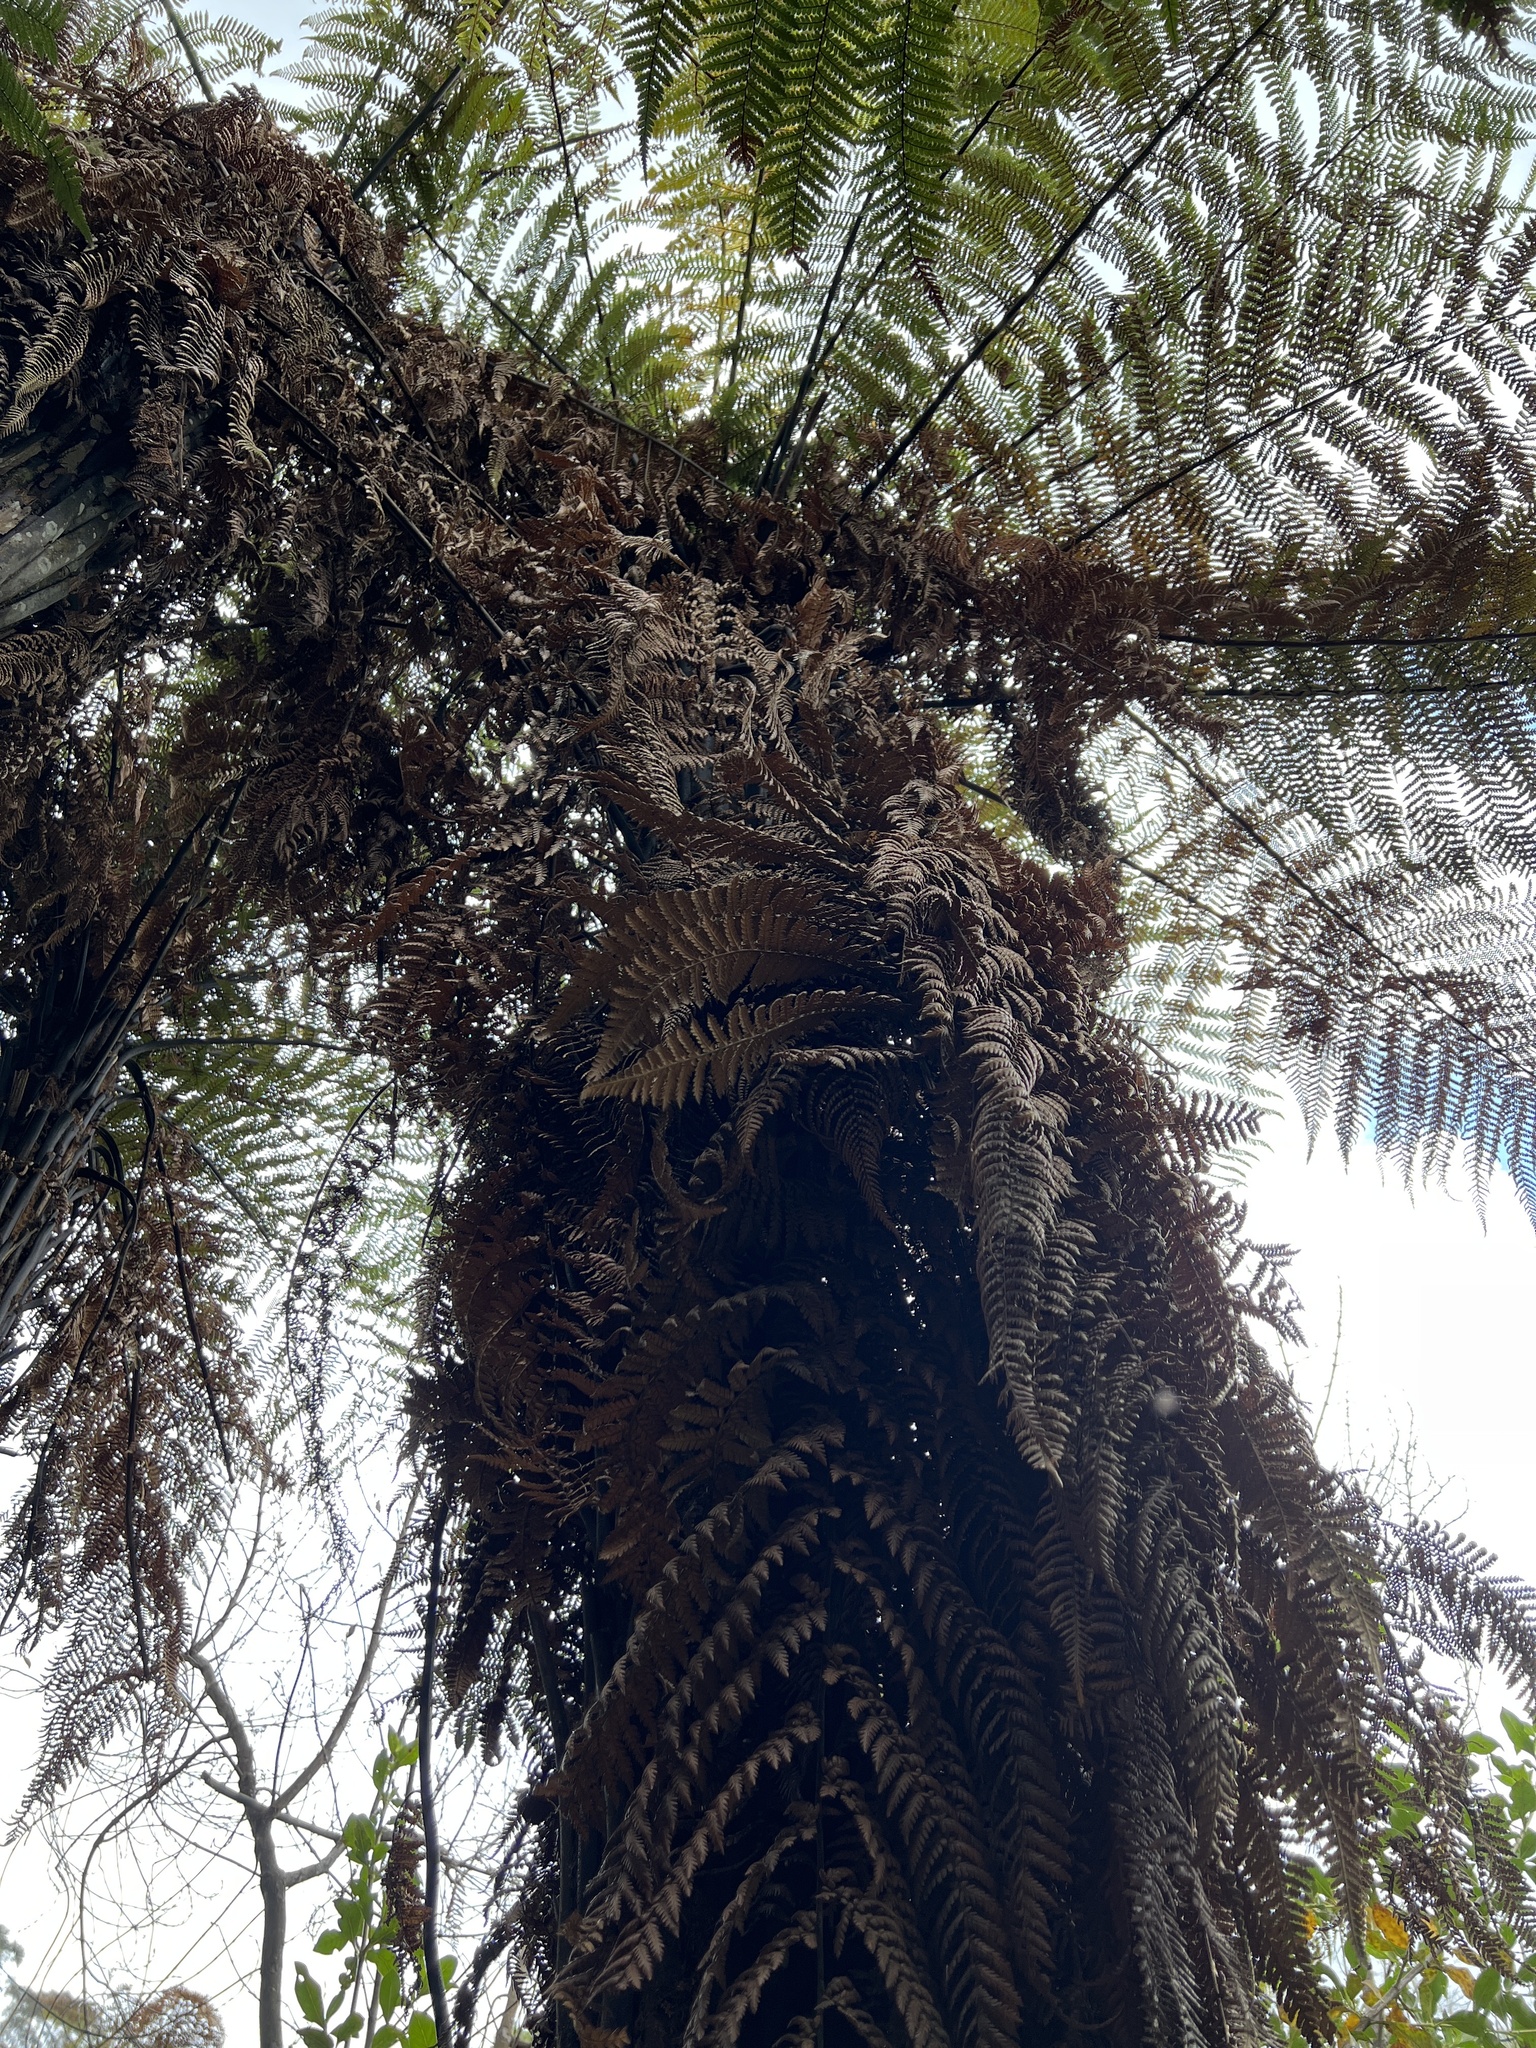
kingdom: Plantae
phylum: Tracheophyta
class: Polypodiopsida
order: Cyatheales
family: Dicksoniaceae
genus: Dicksonia
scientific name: Dicksonia squarrosa
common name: Hard treefern
